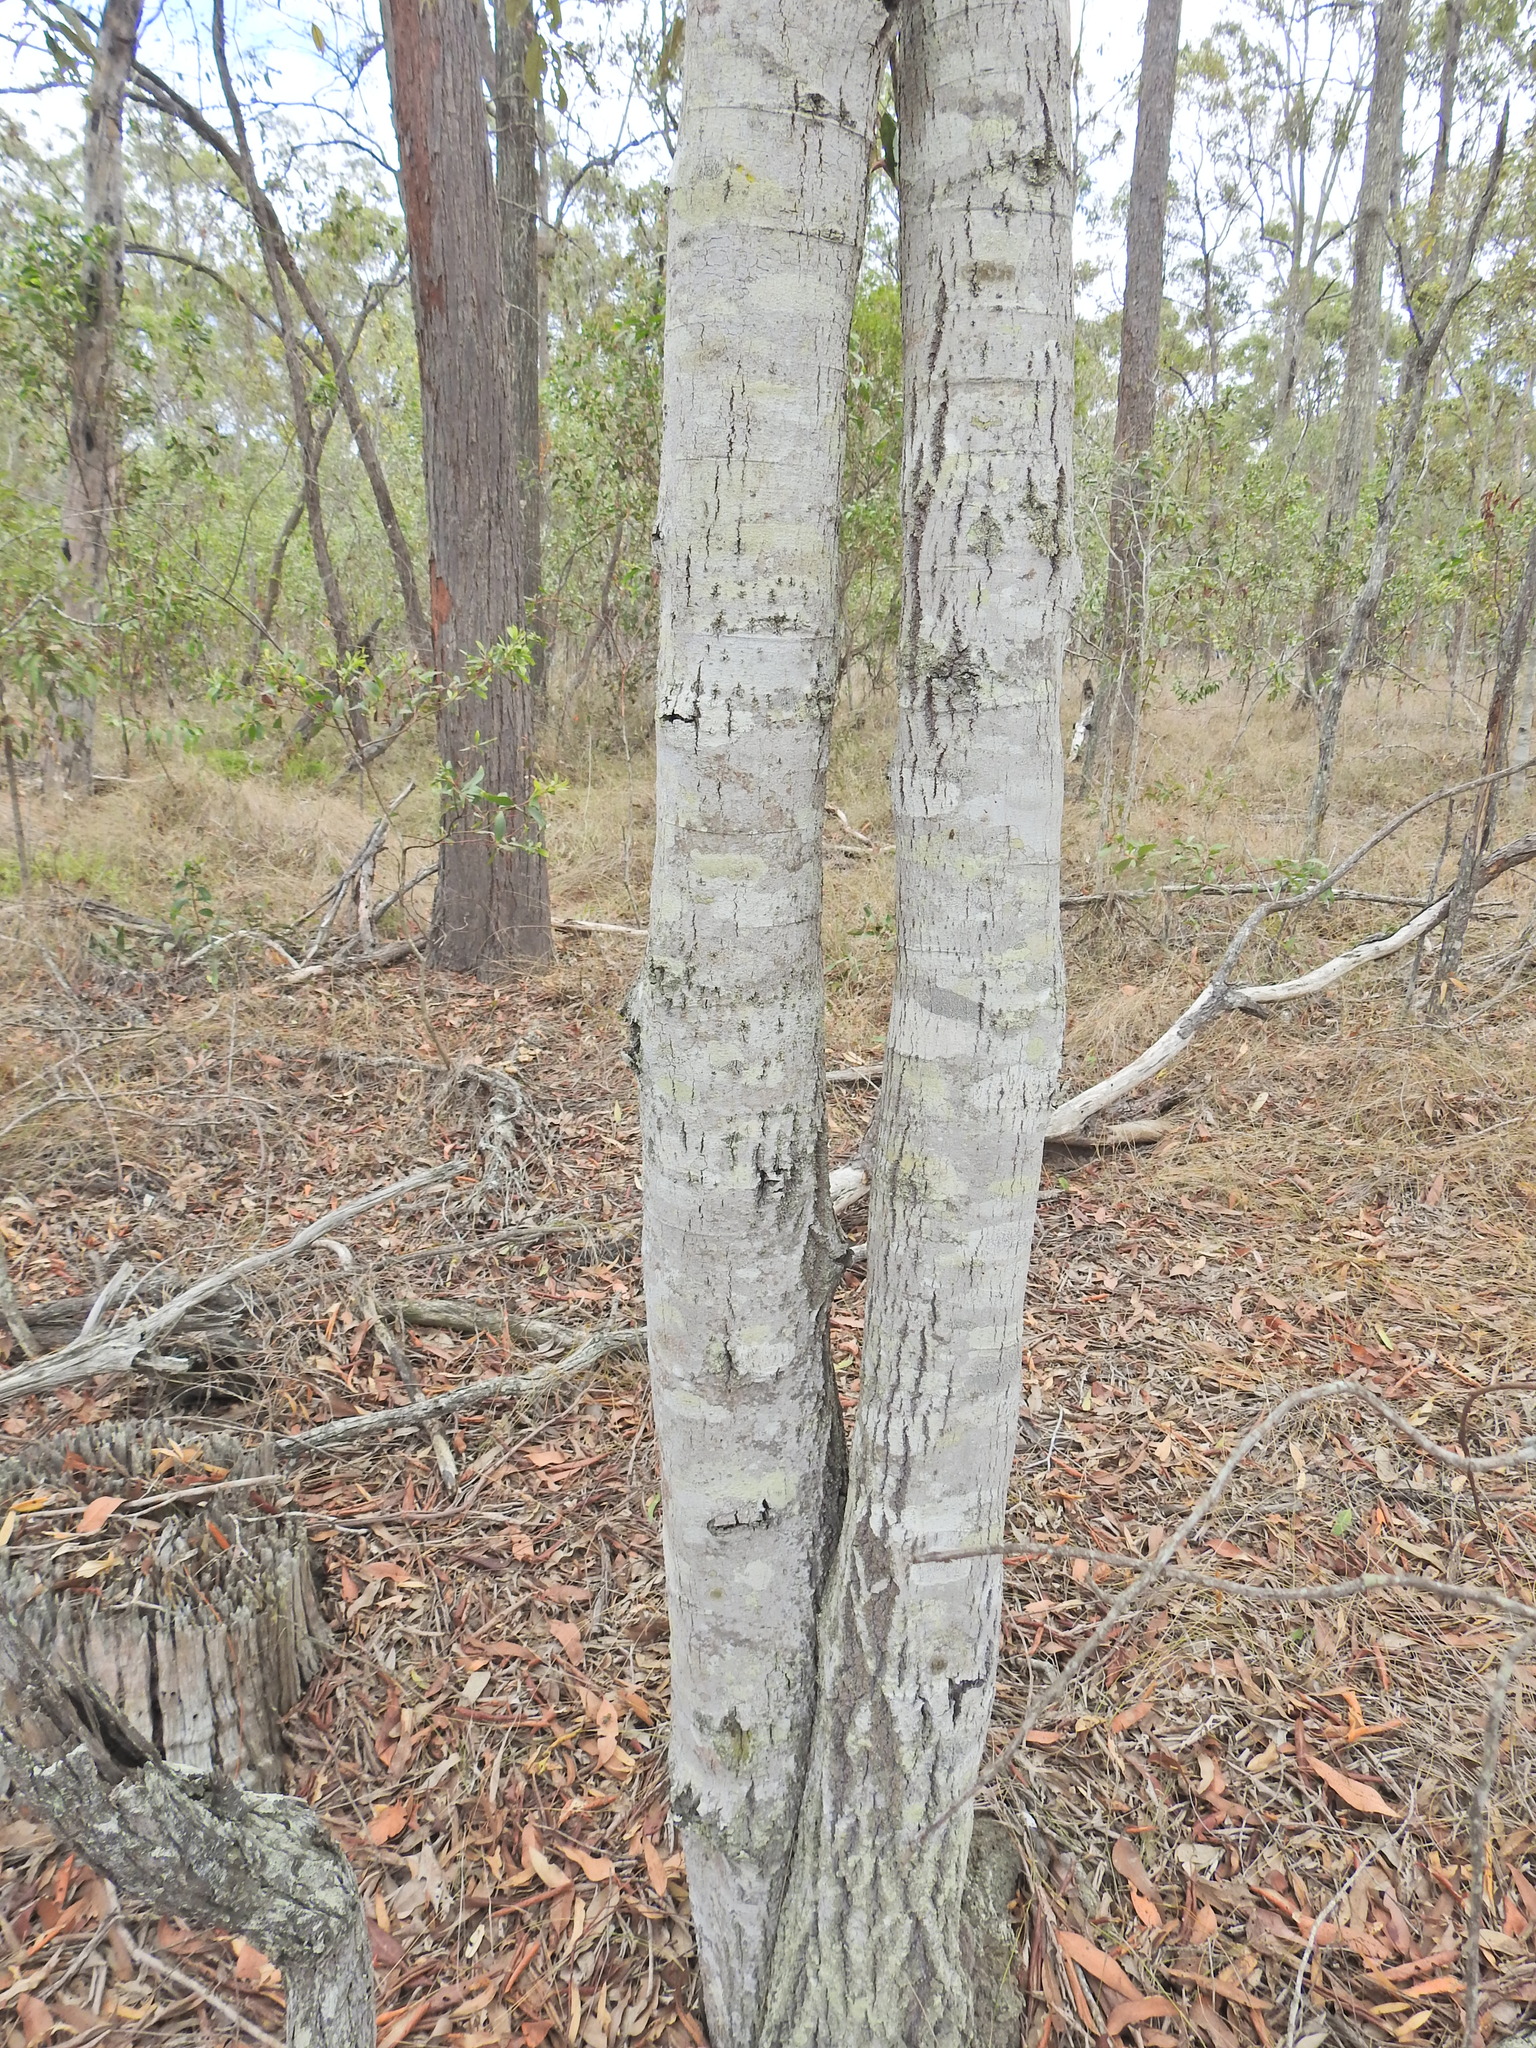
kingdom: Plantae
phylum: Tracheophyta
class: Magnoliopsida
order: Rosales
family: Rhamnaceae
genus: Alphitonia
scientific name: Alphitonia excelsa
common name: Red ash
